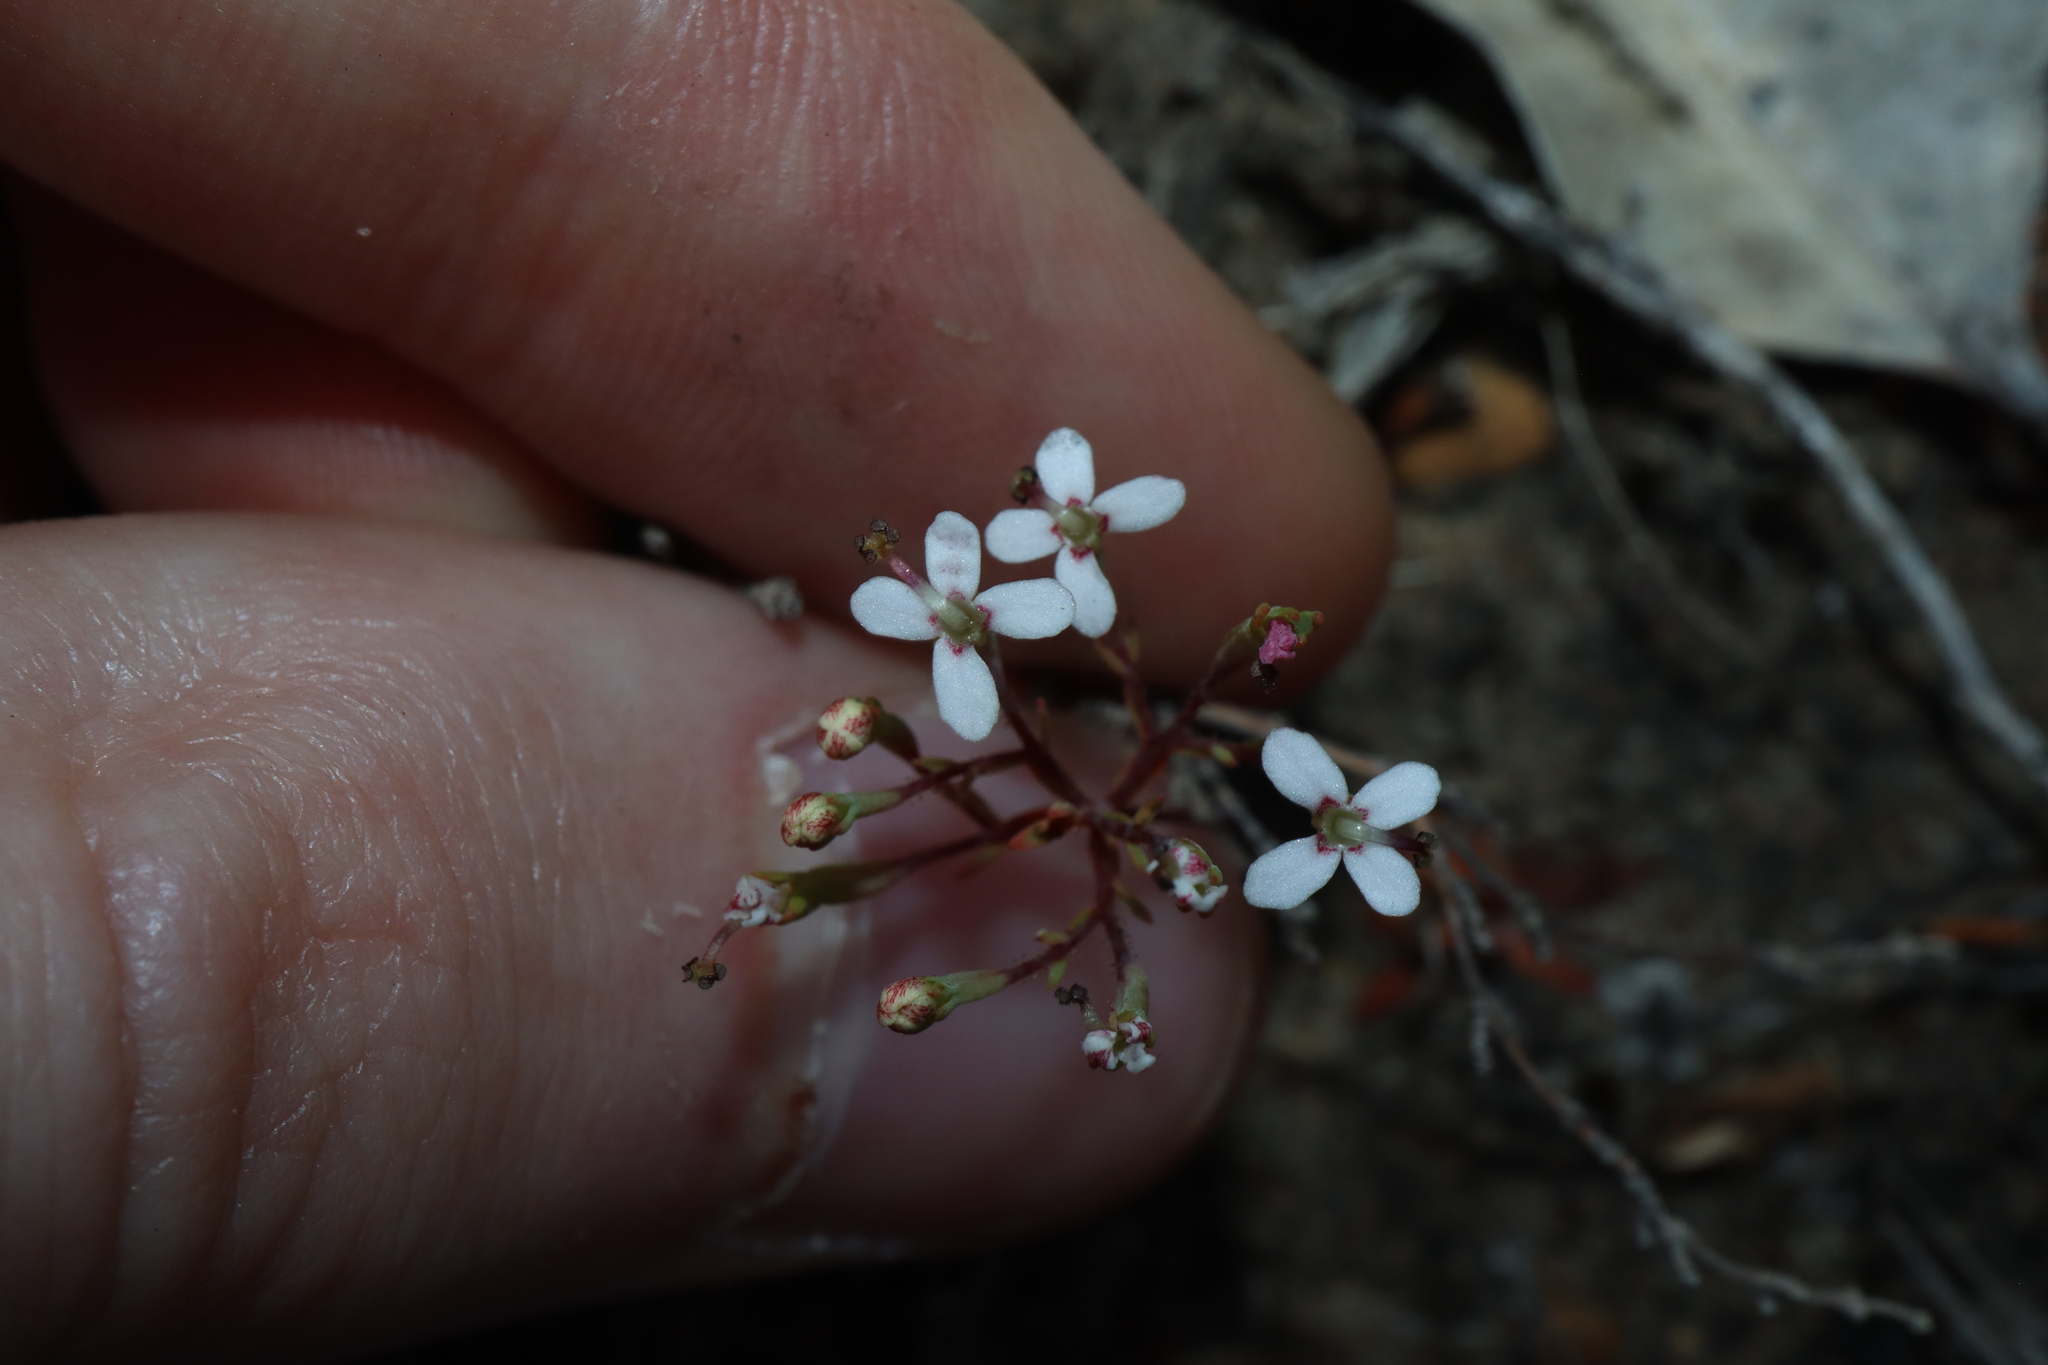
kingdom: Plantae
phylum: Tracheophyta
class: Magnoliopsida
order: Asterales
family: Stylidiaceae
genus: Stylidium
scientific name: Stylidium pulchellum
